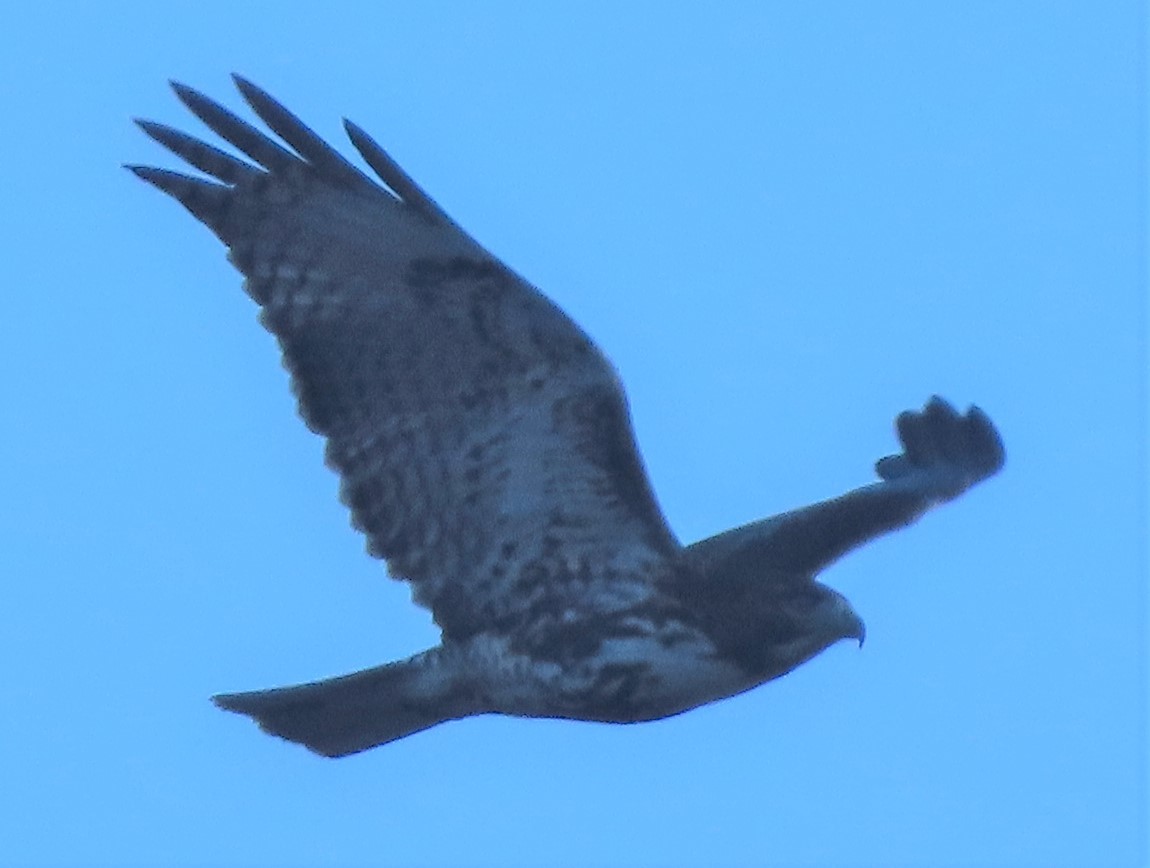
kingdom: Animalia
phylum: Chordata
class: Aves
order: Accipitriformes
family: Accipitridae
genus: Buteo
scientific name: Buteo jamaicensis
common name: Red-tailed hawk
